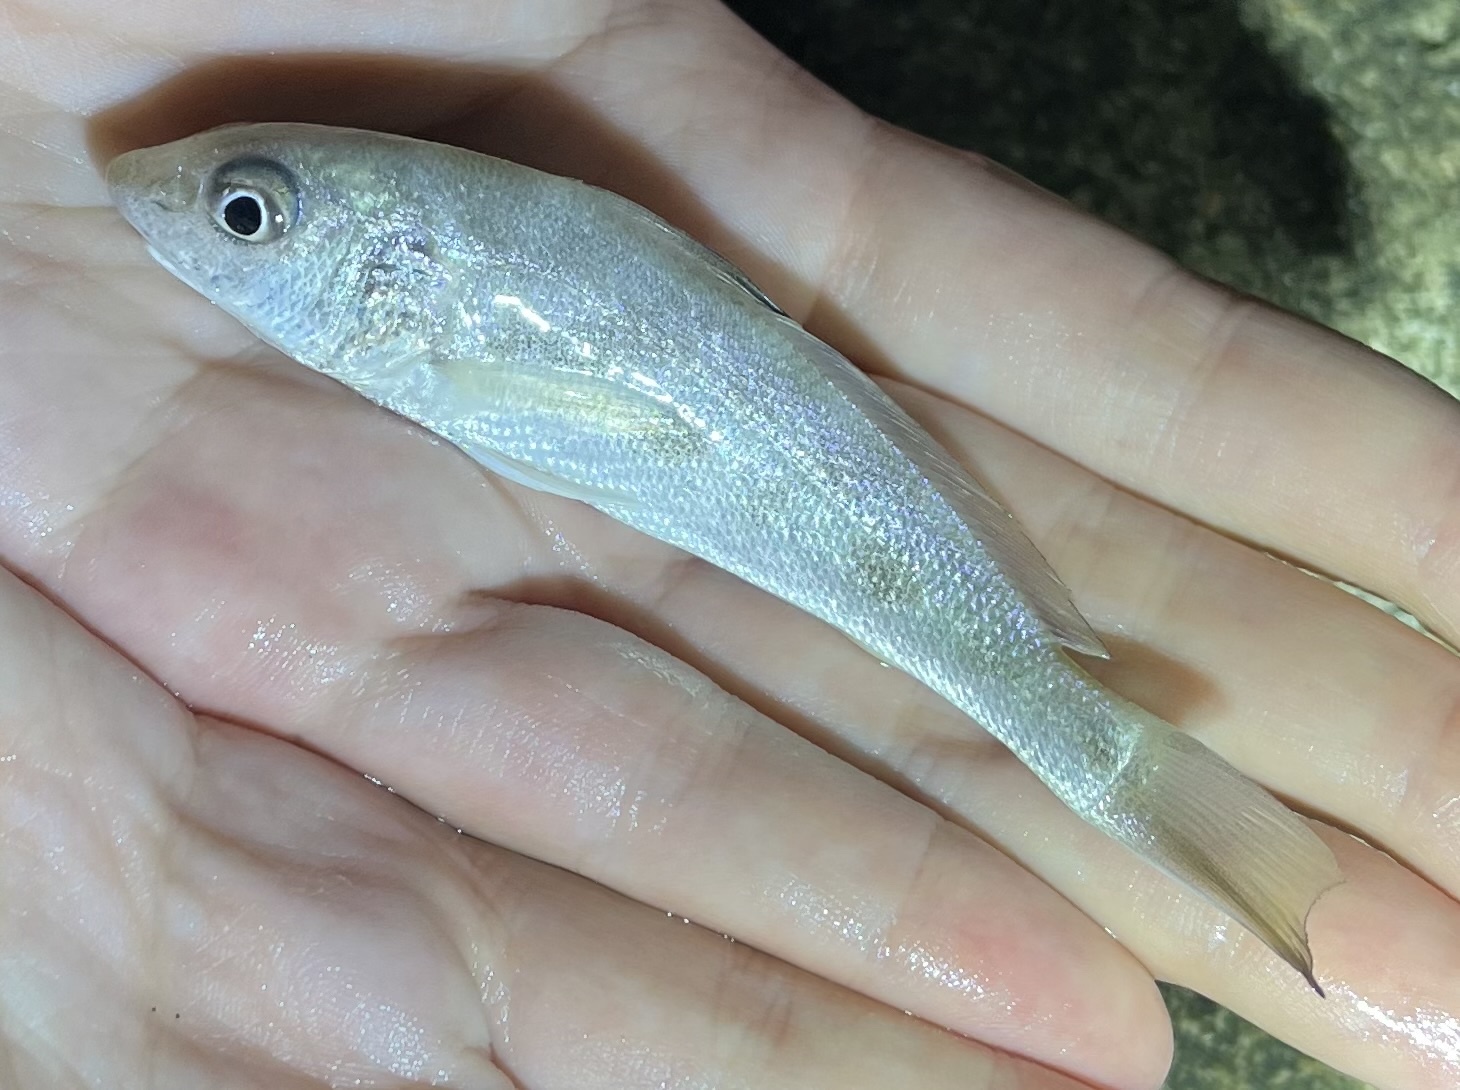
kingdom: Animalia
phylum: Chordata
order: Perciformes
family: Sciaenidae
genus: Menticirrhus
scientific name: Menticirrhus americanus
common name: Southern kingfish
